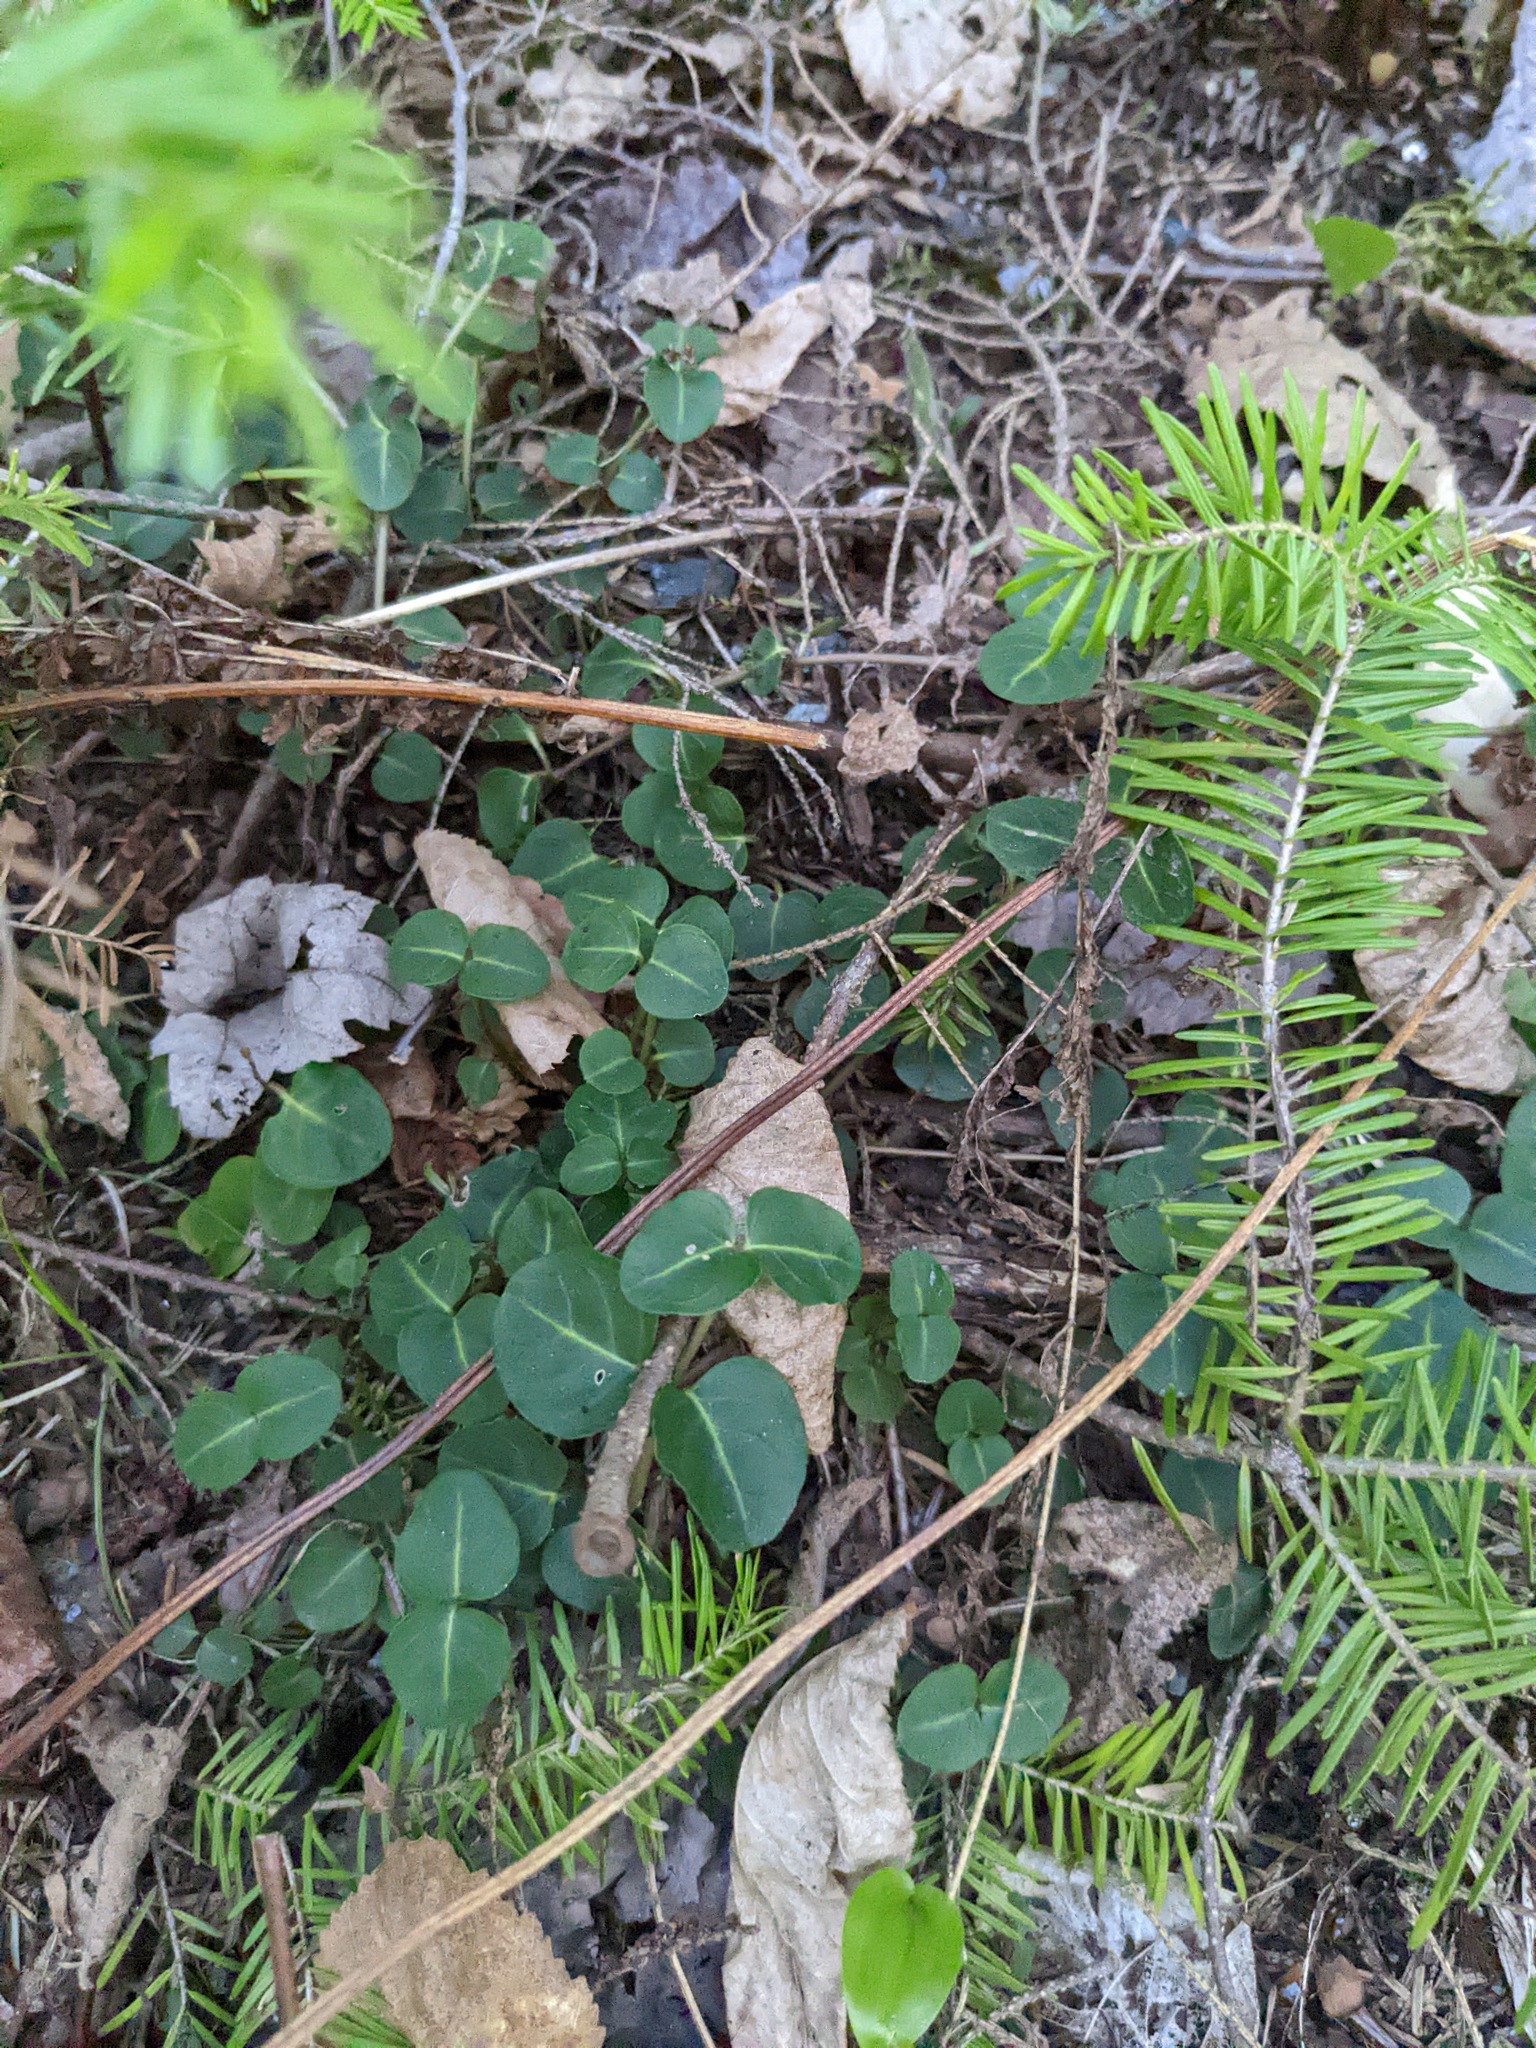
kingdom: Plantae
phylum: Tracheophyta
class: Magnoliopsida
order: Gentianales
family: Rubiaceae
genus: Mitchella
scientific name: Mitchella repens
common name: Partridge-berry
